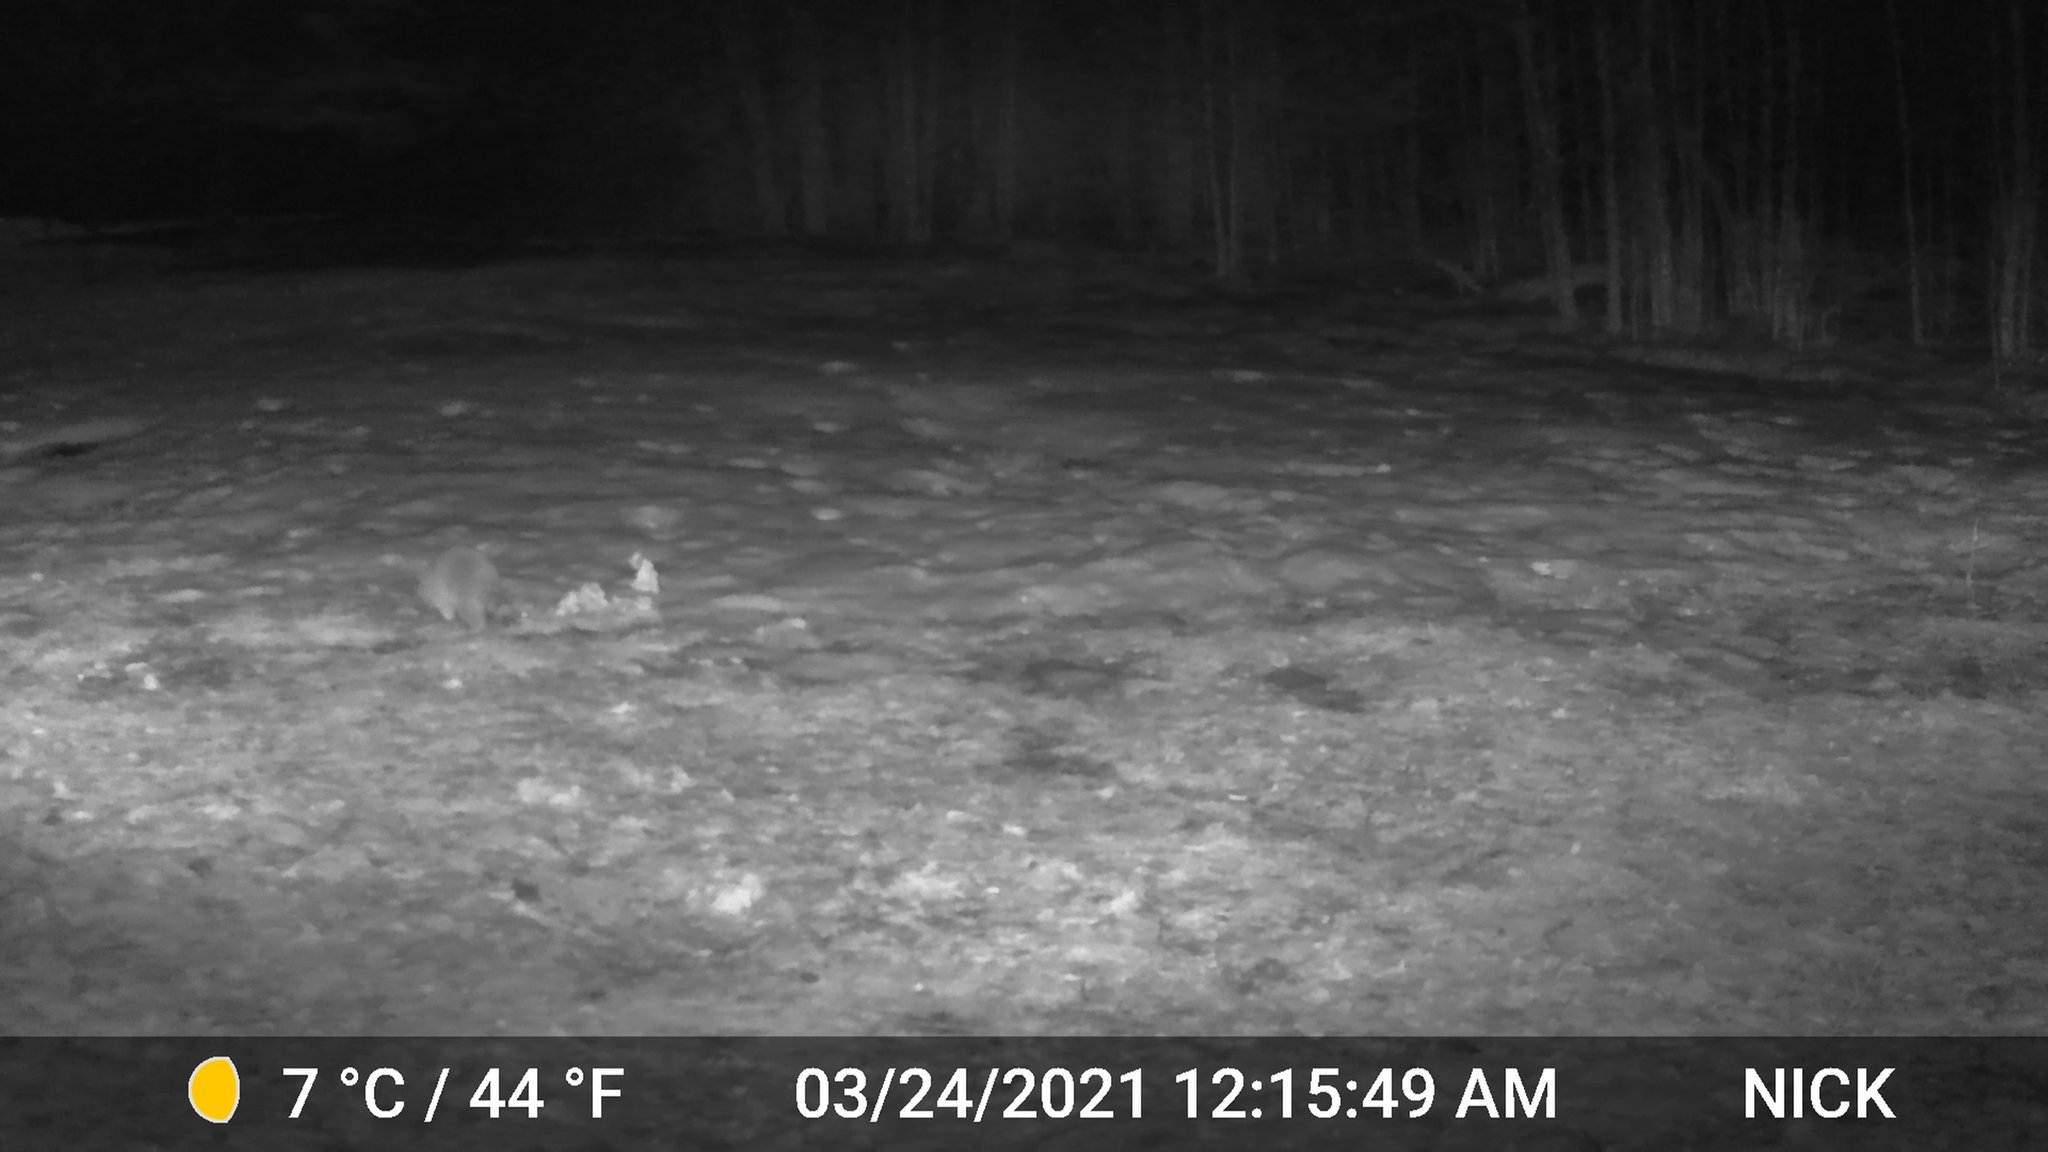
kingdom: Animalia
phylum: Chordata
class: Mammalia
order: Carnivora
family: Procyonidae
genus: Procyon
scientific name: Procyon lotor
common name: Raccoon
